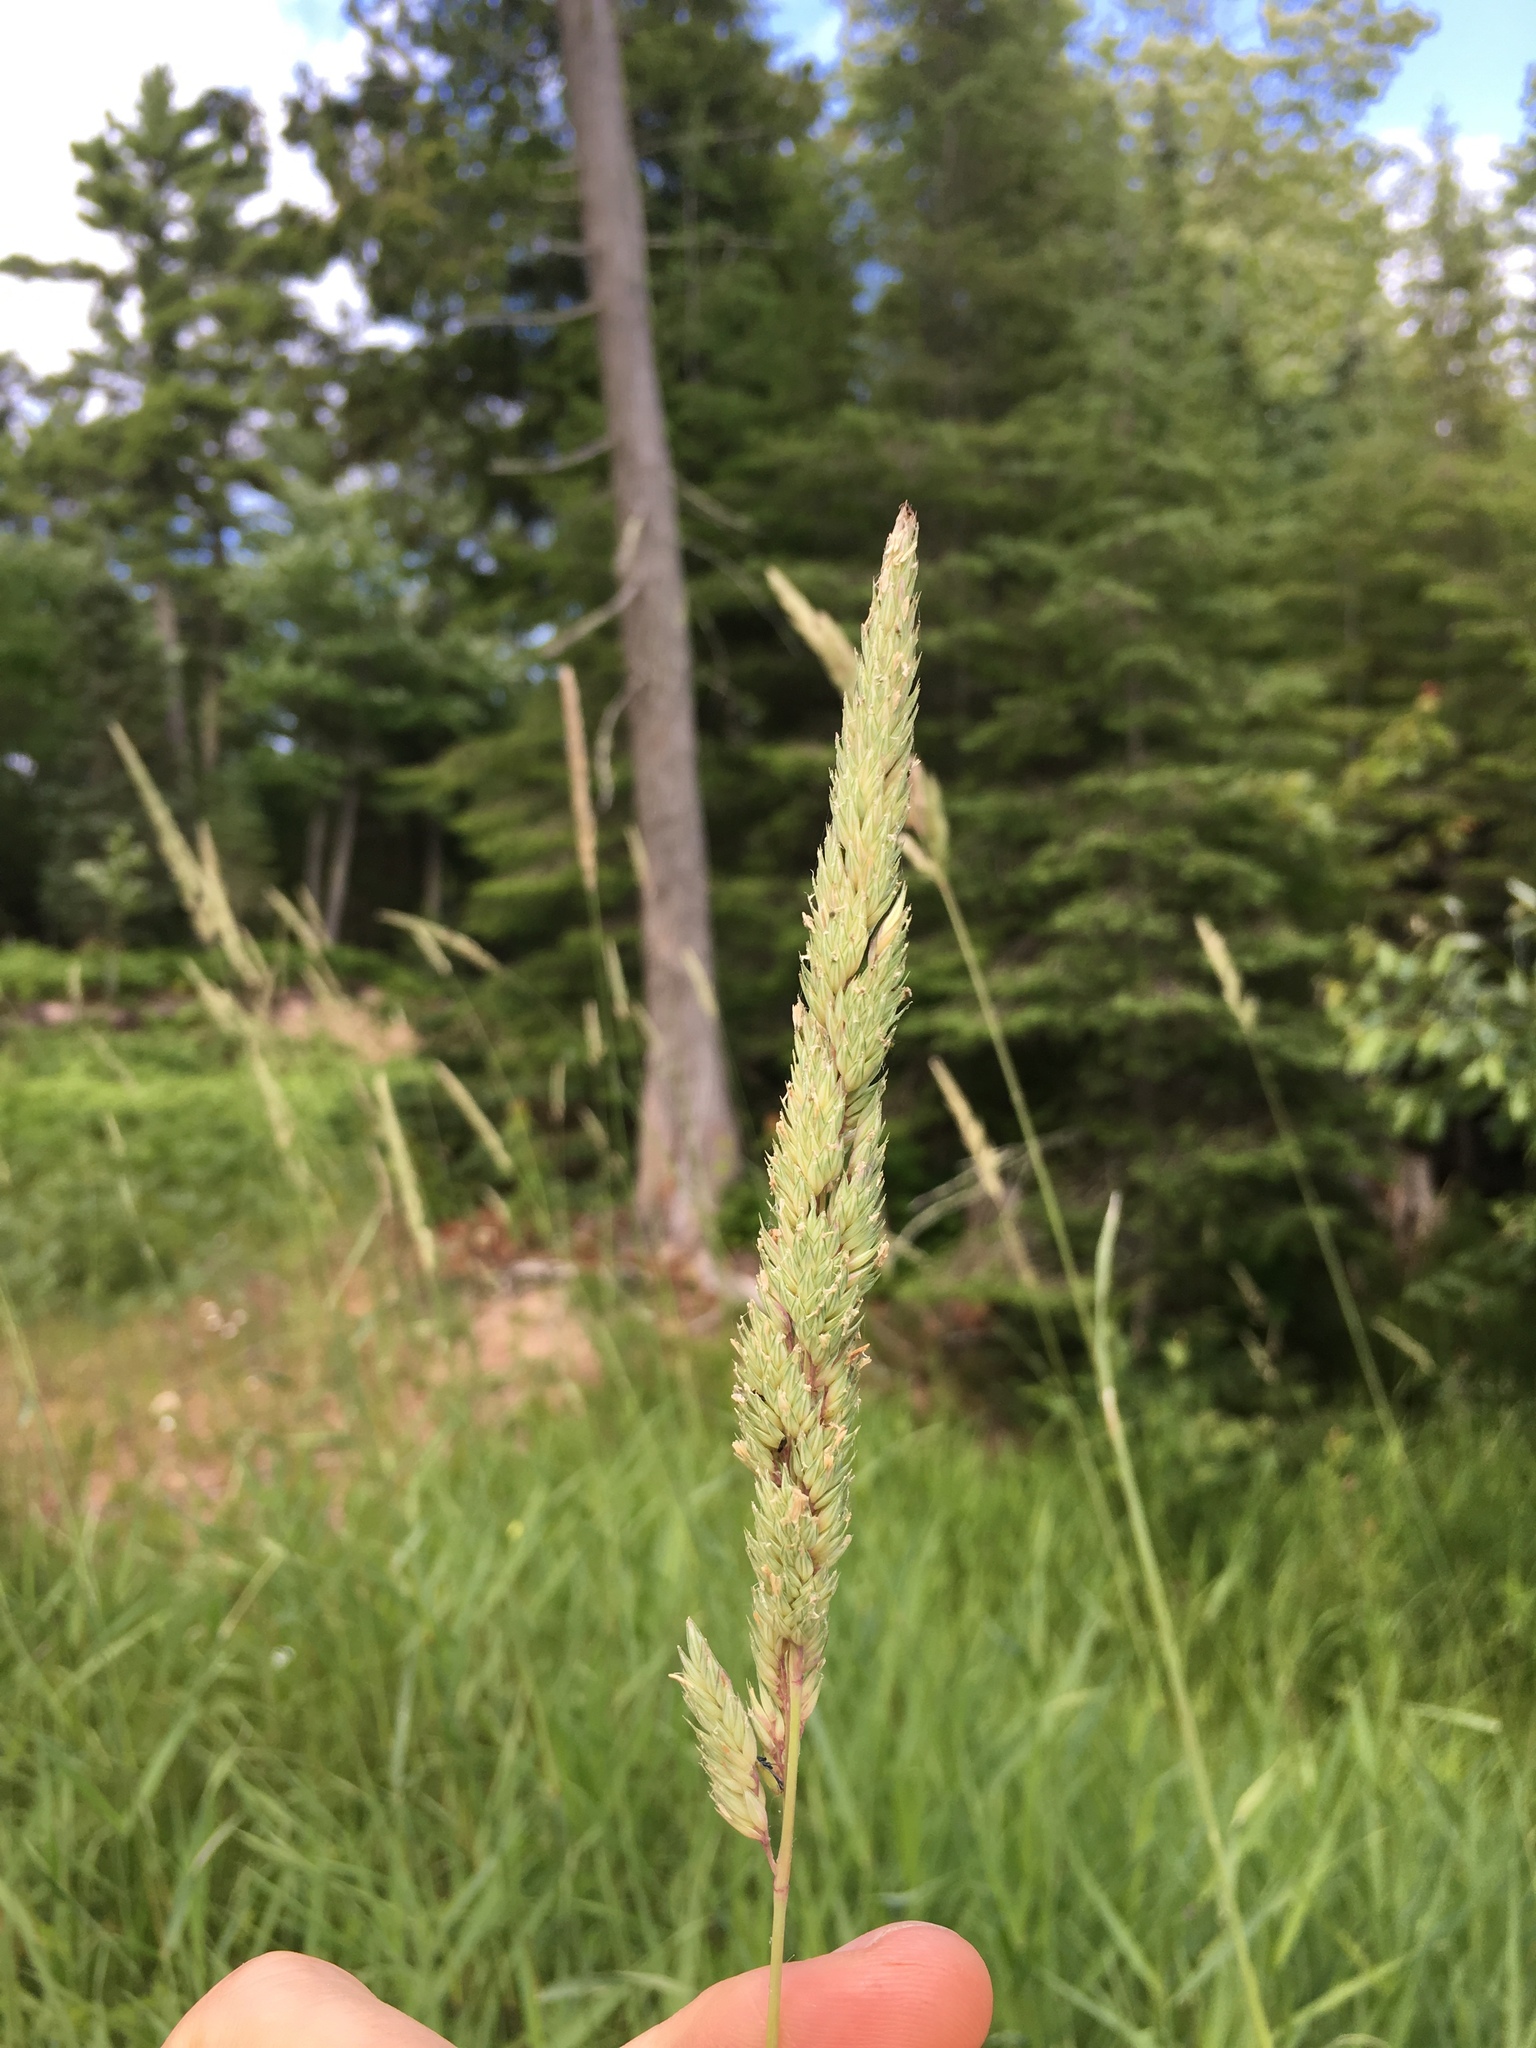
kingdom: Plantae
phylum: Tracheophyta
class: Liliopsida
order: Poales
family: Poaceae
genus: Phalaris
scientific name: Phalaris arundinacea
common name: Reed canary-grass
